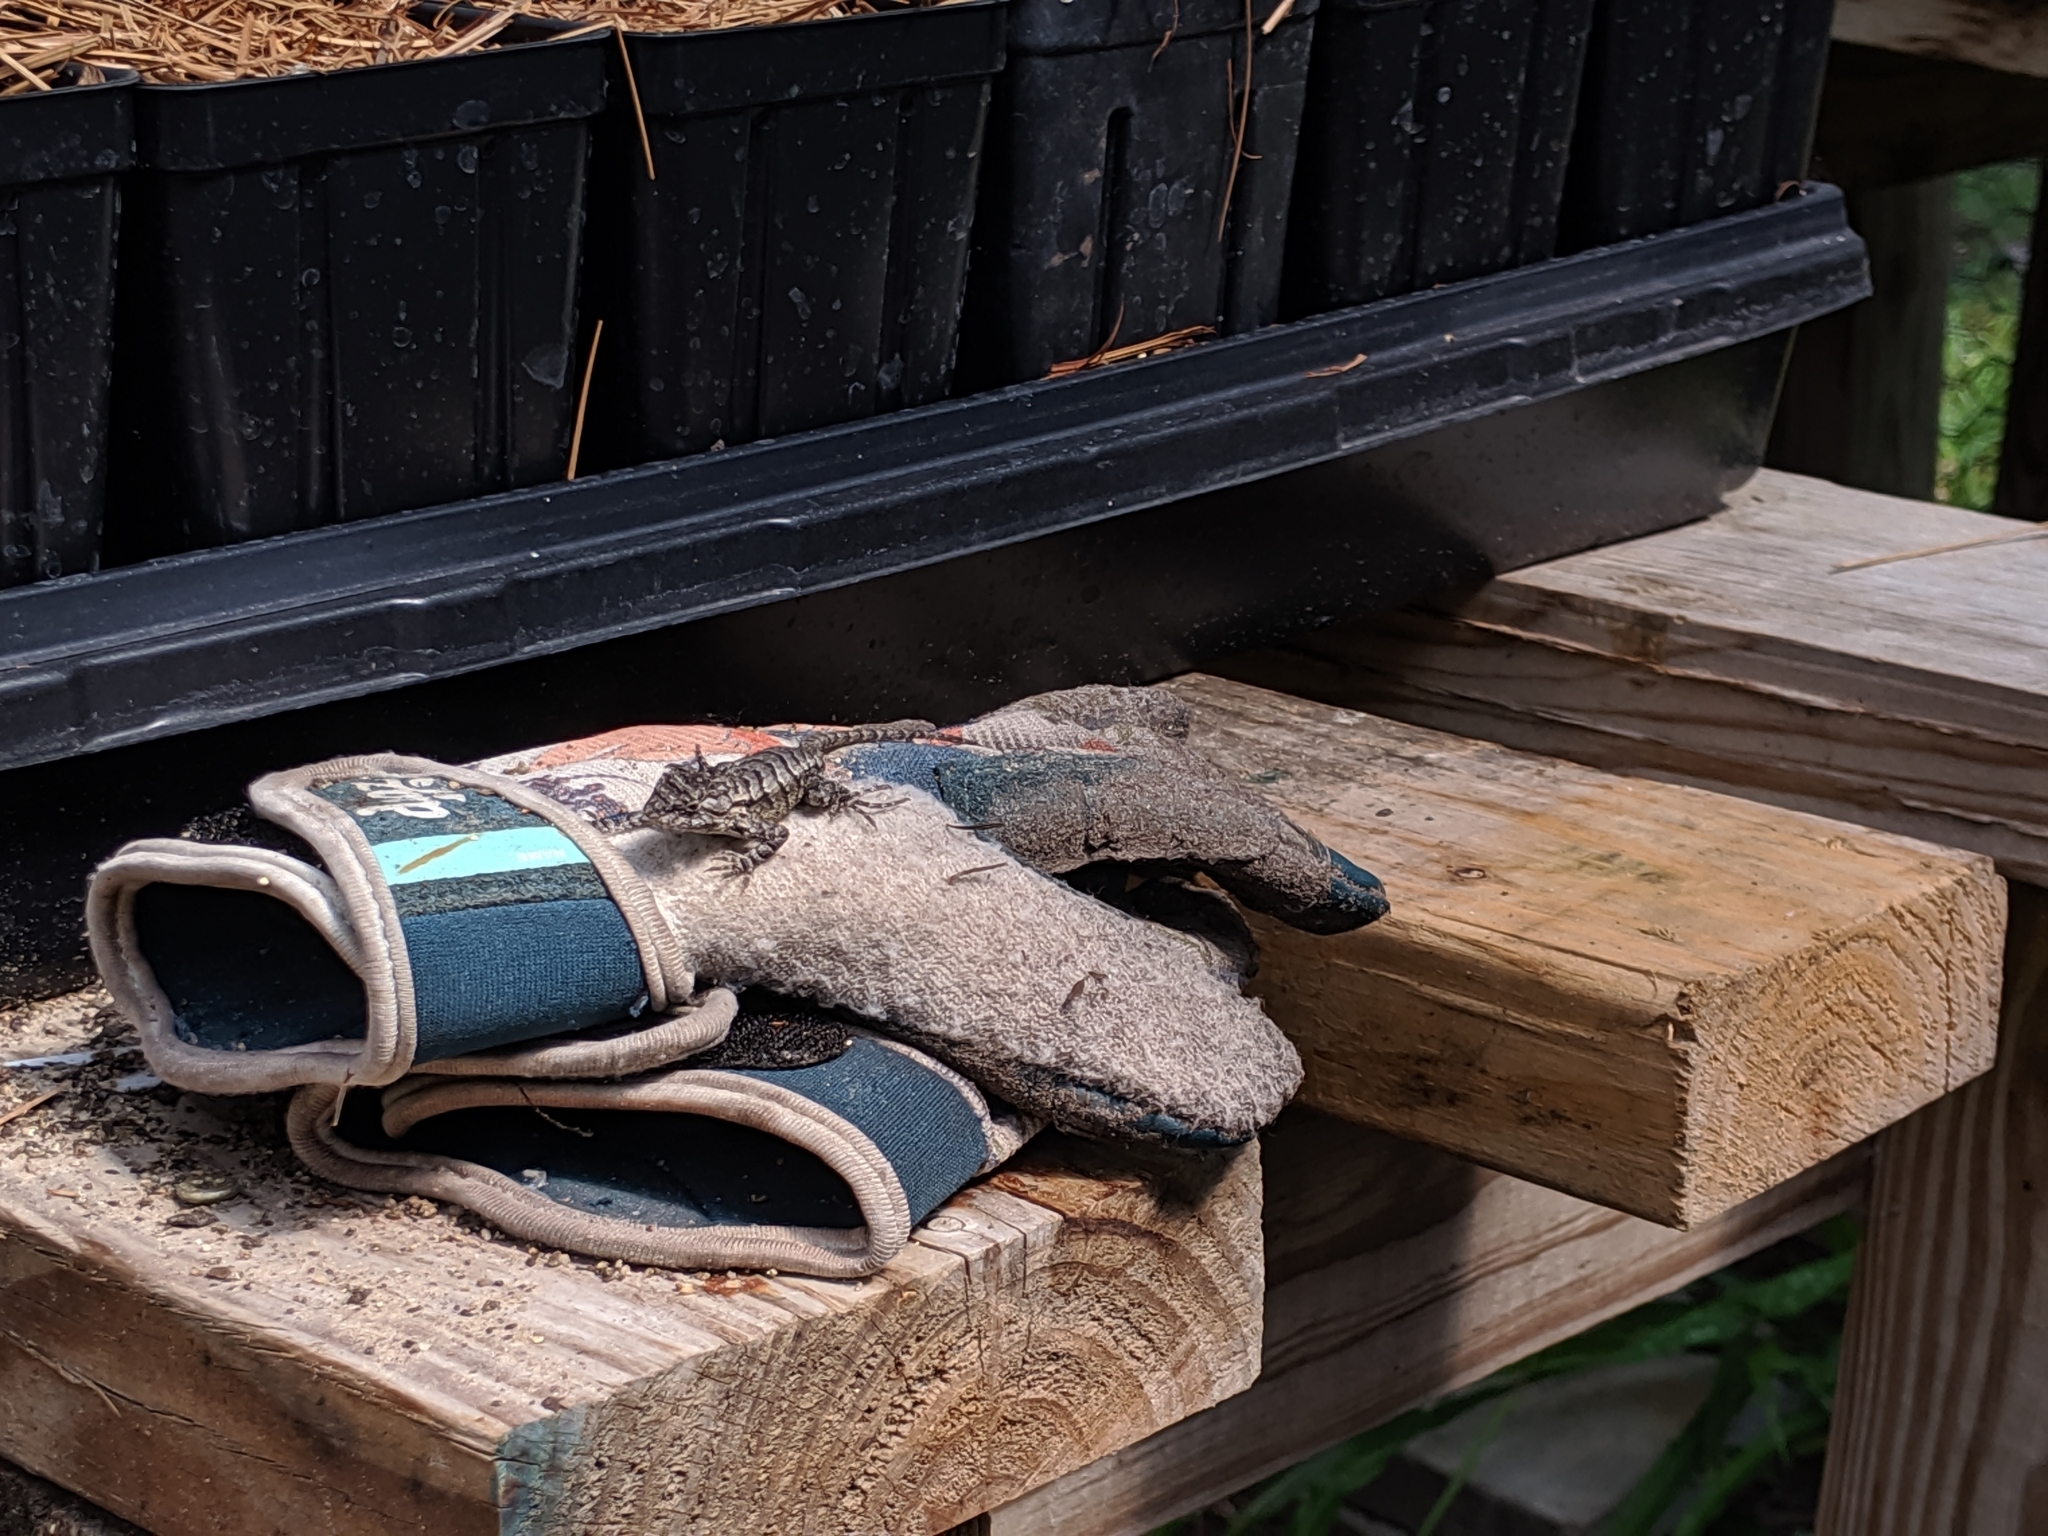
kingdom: Animalia
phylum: Chordata
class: Squamata
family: Phrynosomatidae
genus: Sceloporus
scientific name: Sceloporus undulatus
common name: Eastern fence lizard
